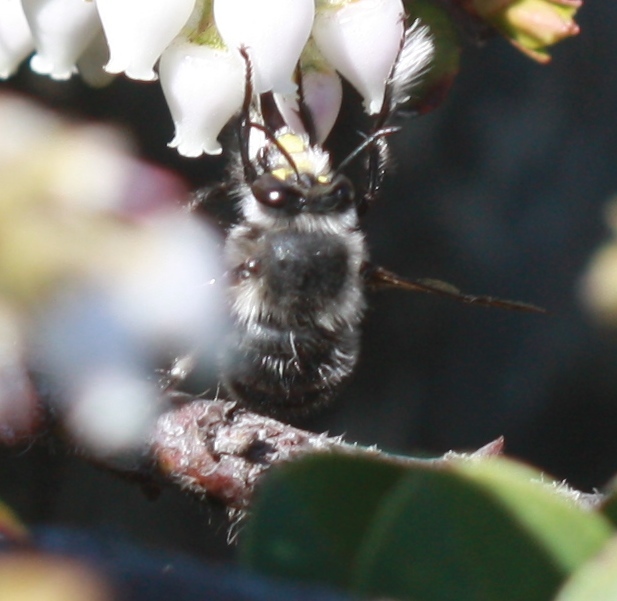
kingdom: Animalia
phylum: Arthropoda
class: Insecta
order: Hymenoptera
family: Apidae
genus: Anthophora
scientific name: Anthophora pacifica
